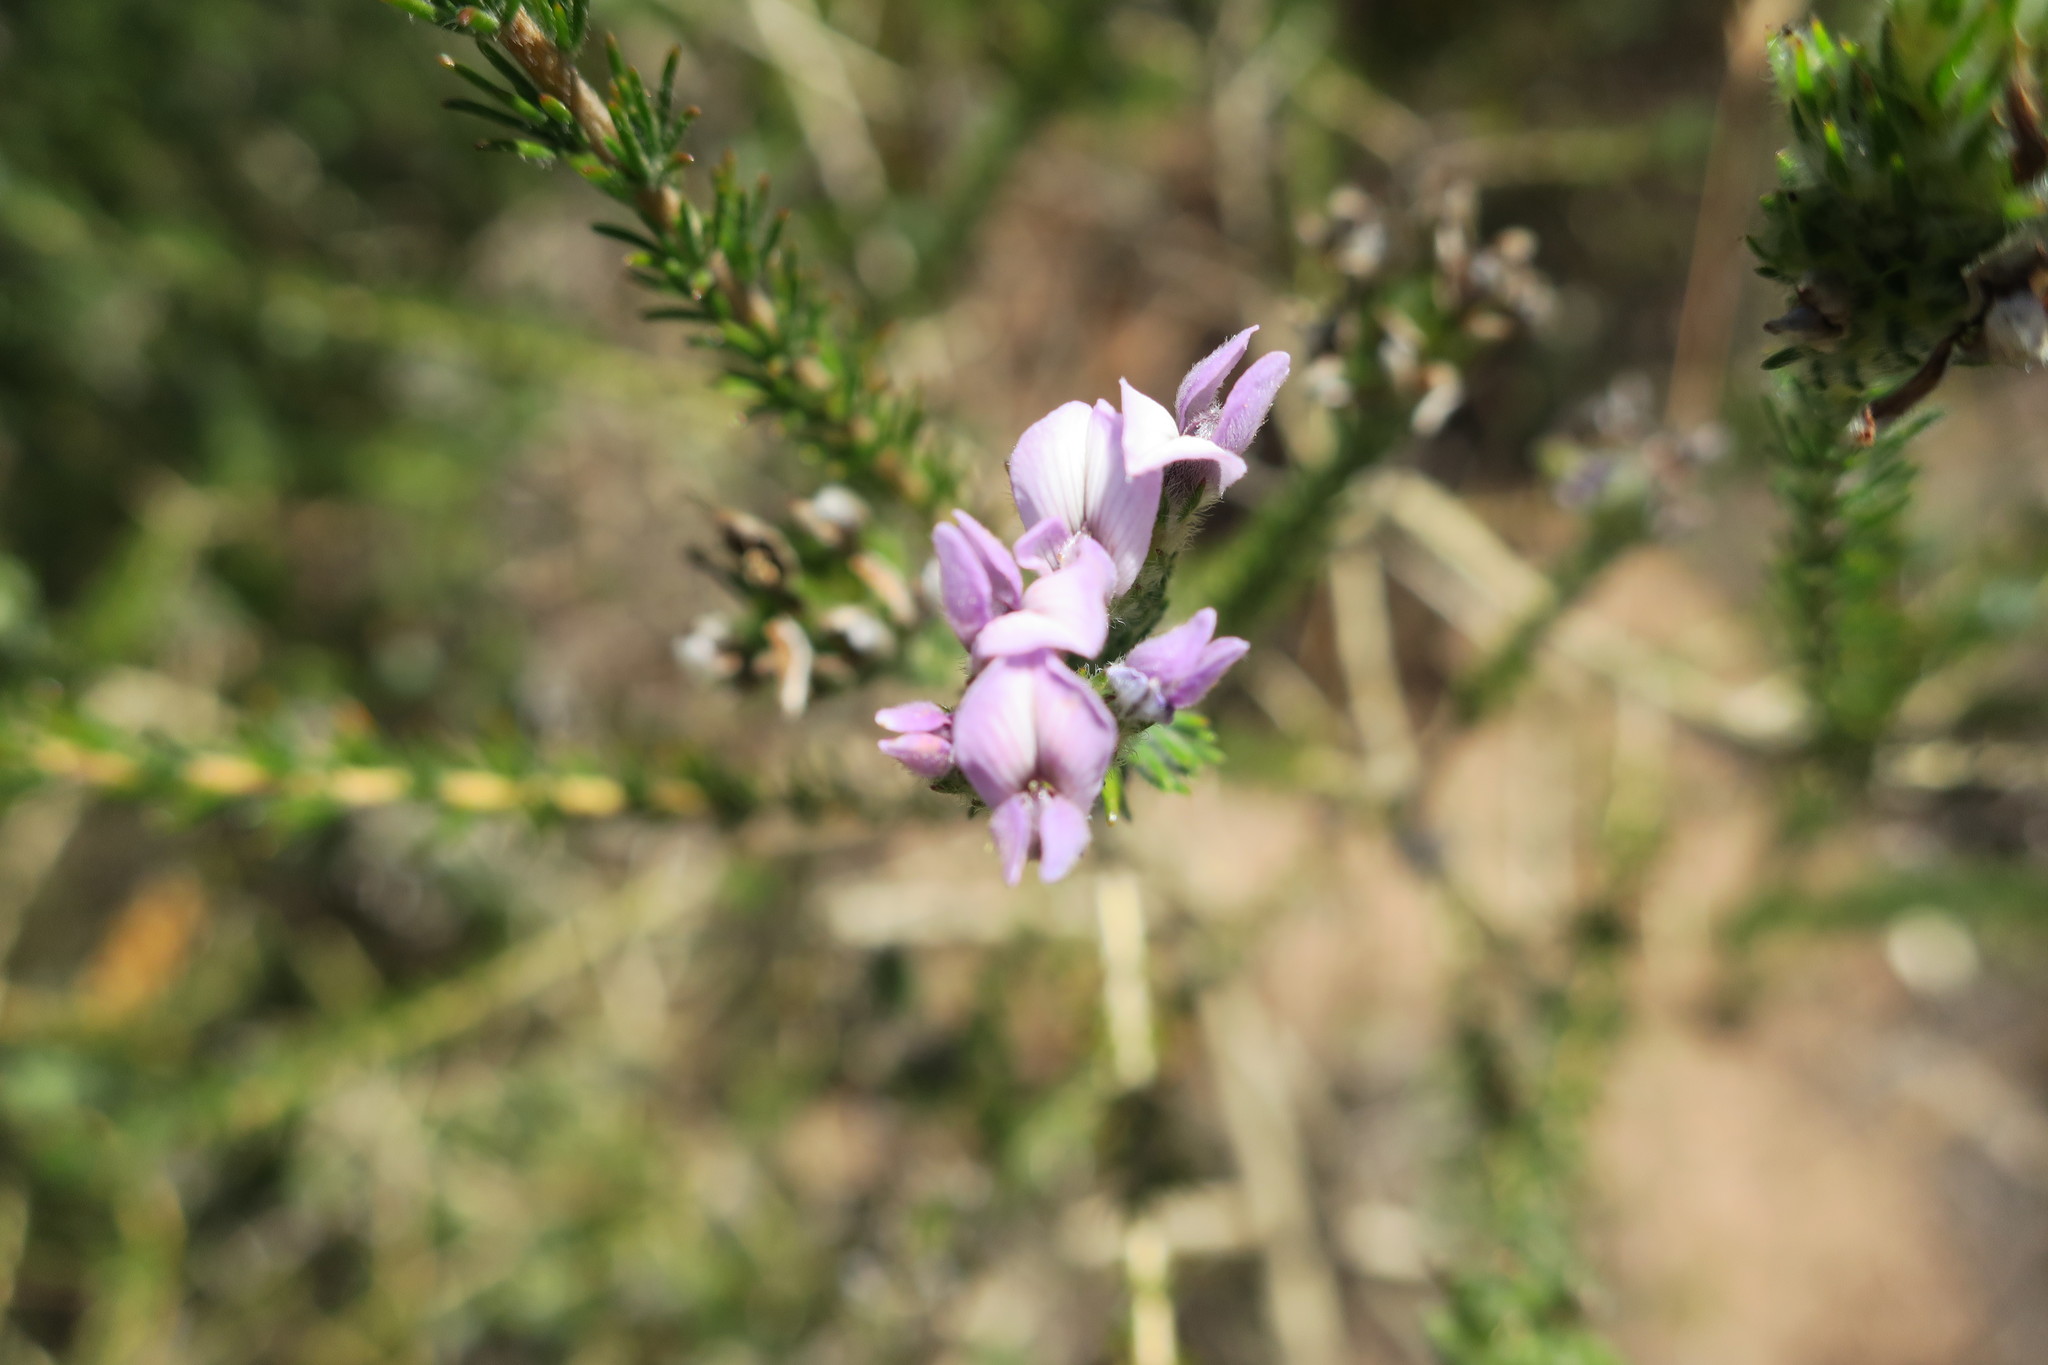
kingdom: Plantae
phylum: Tracheophyta
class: Magnoliopsida
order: Fabales
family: Fabaceae
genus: Aspalathus
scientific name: Aspalathus cephalotes
